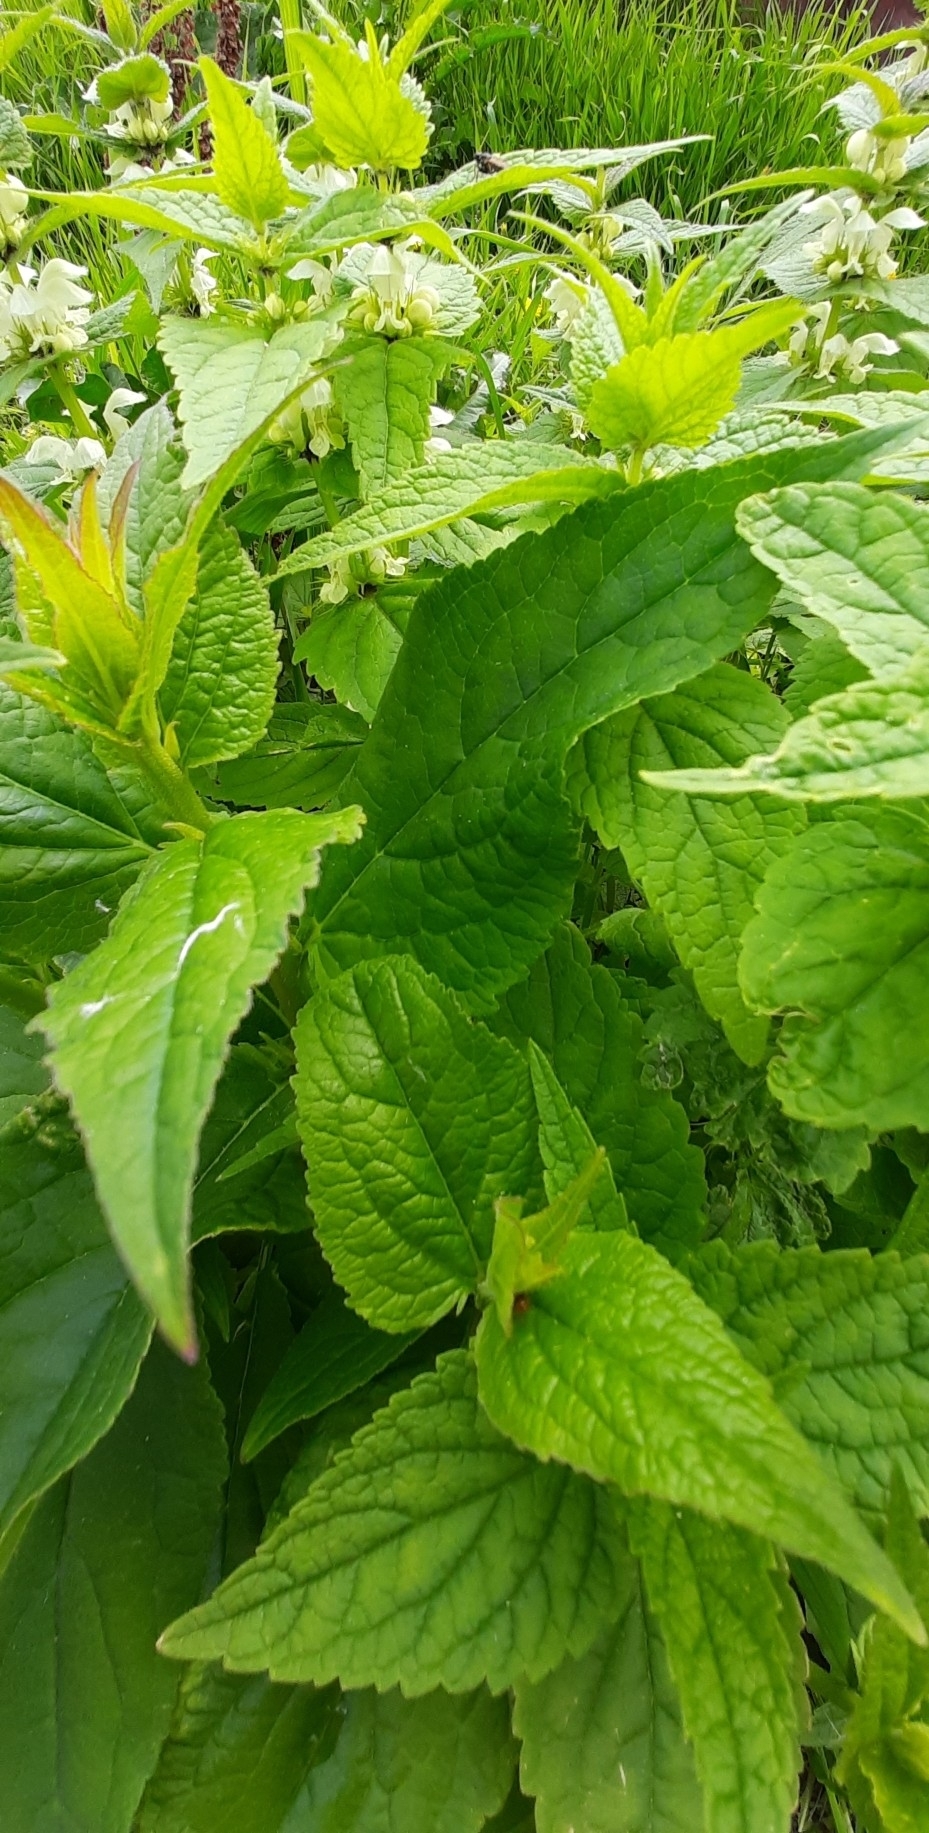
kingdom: Plantae
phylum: Tracheophyta
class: Magnoliopsida
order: Lamiales
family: Lamiaceae
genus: Lamium
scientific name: Lamium album
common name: White dead-nettle
